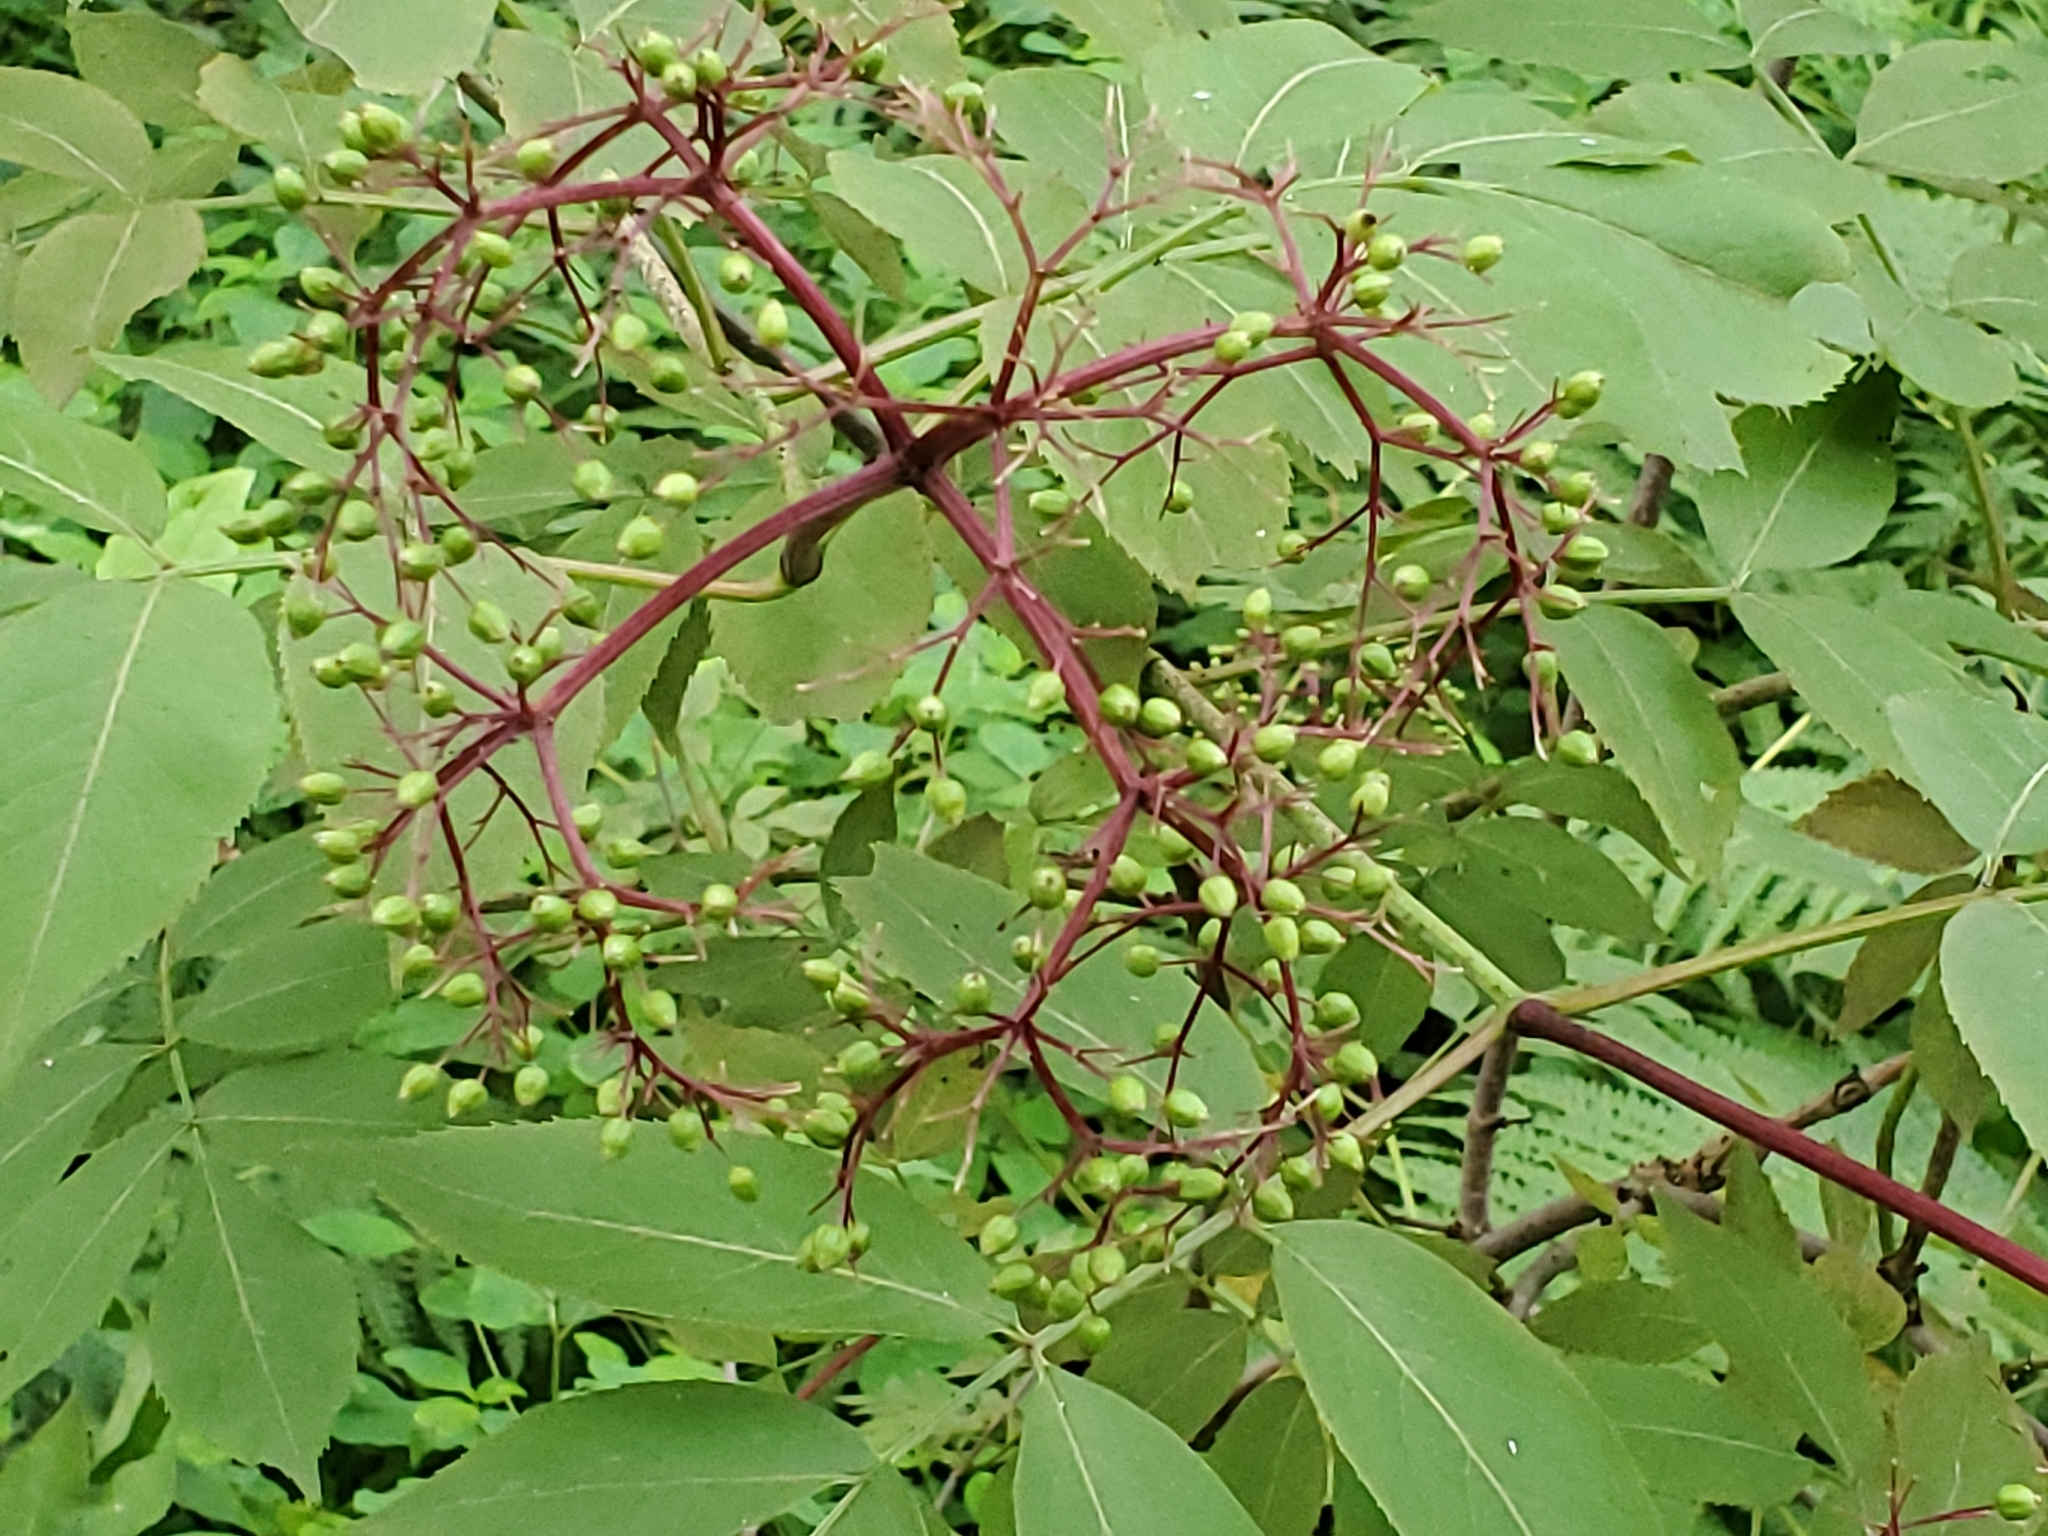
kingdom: Plantae
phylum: Tracheophyta
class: Magnoliopsida
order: Dipsacales
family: Viburnaceae
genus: Sambucus
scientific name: Sambucus canadensis
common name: American elder
